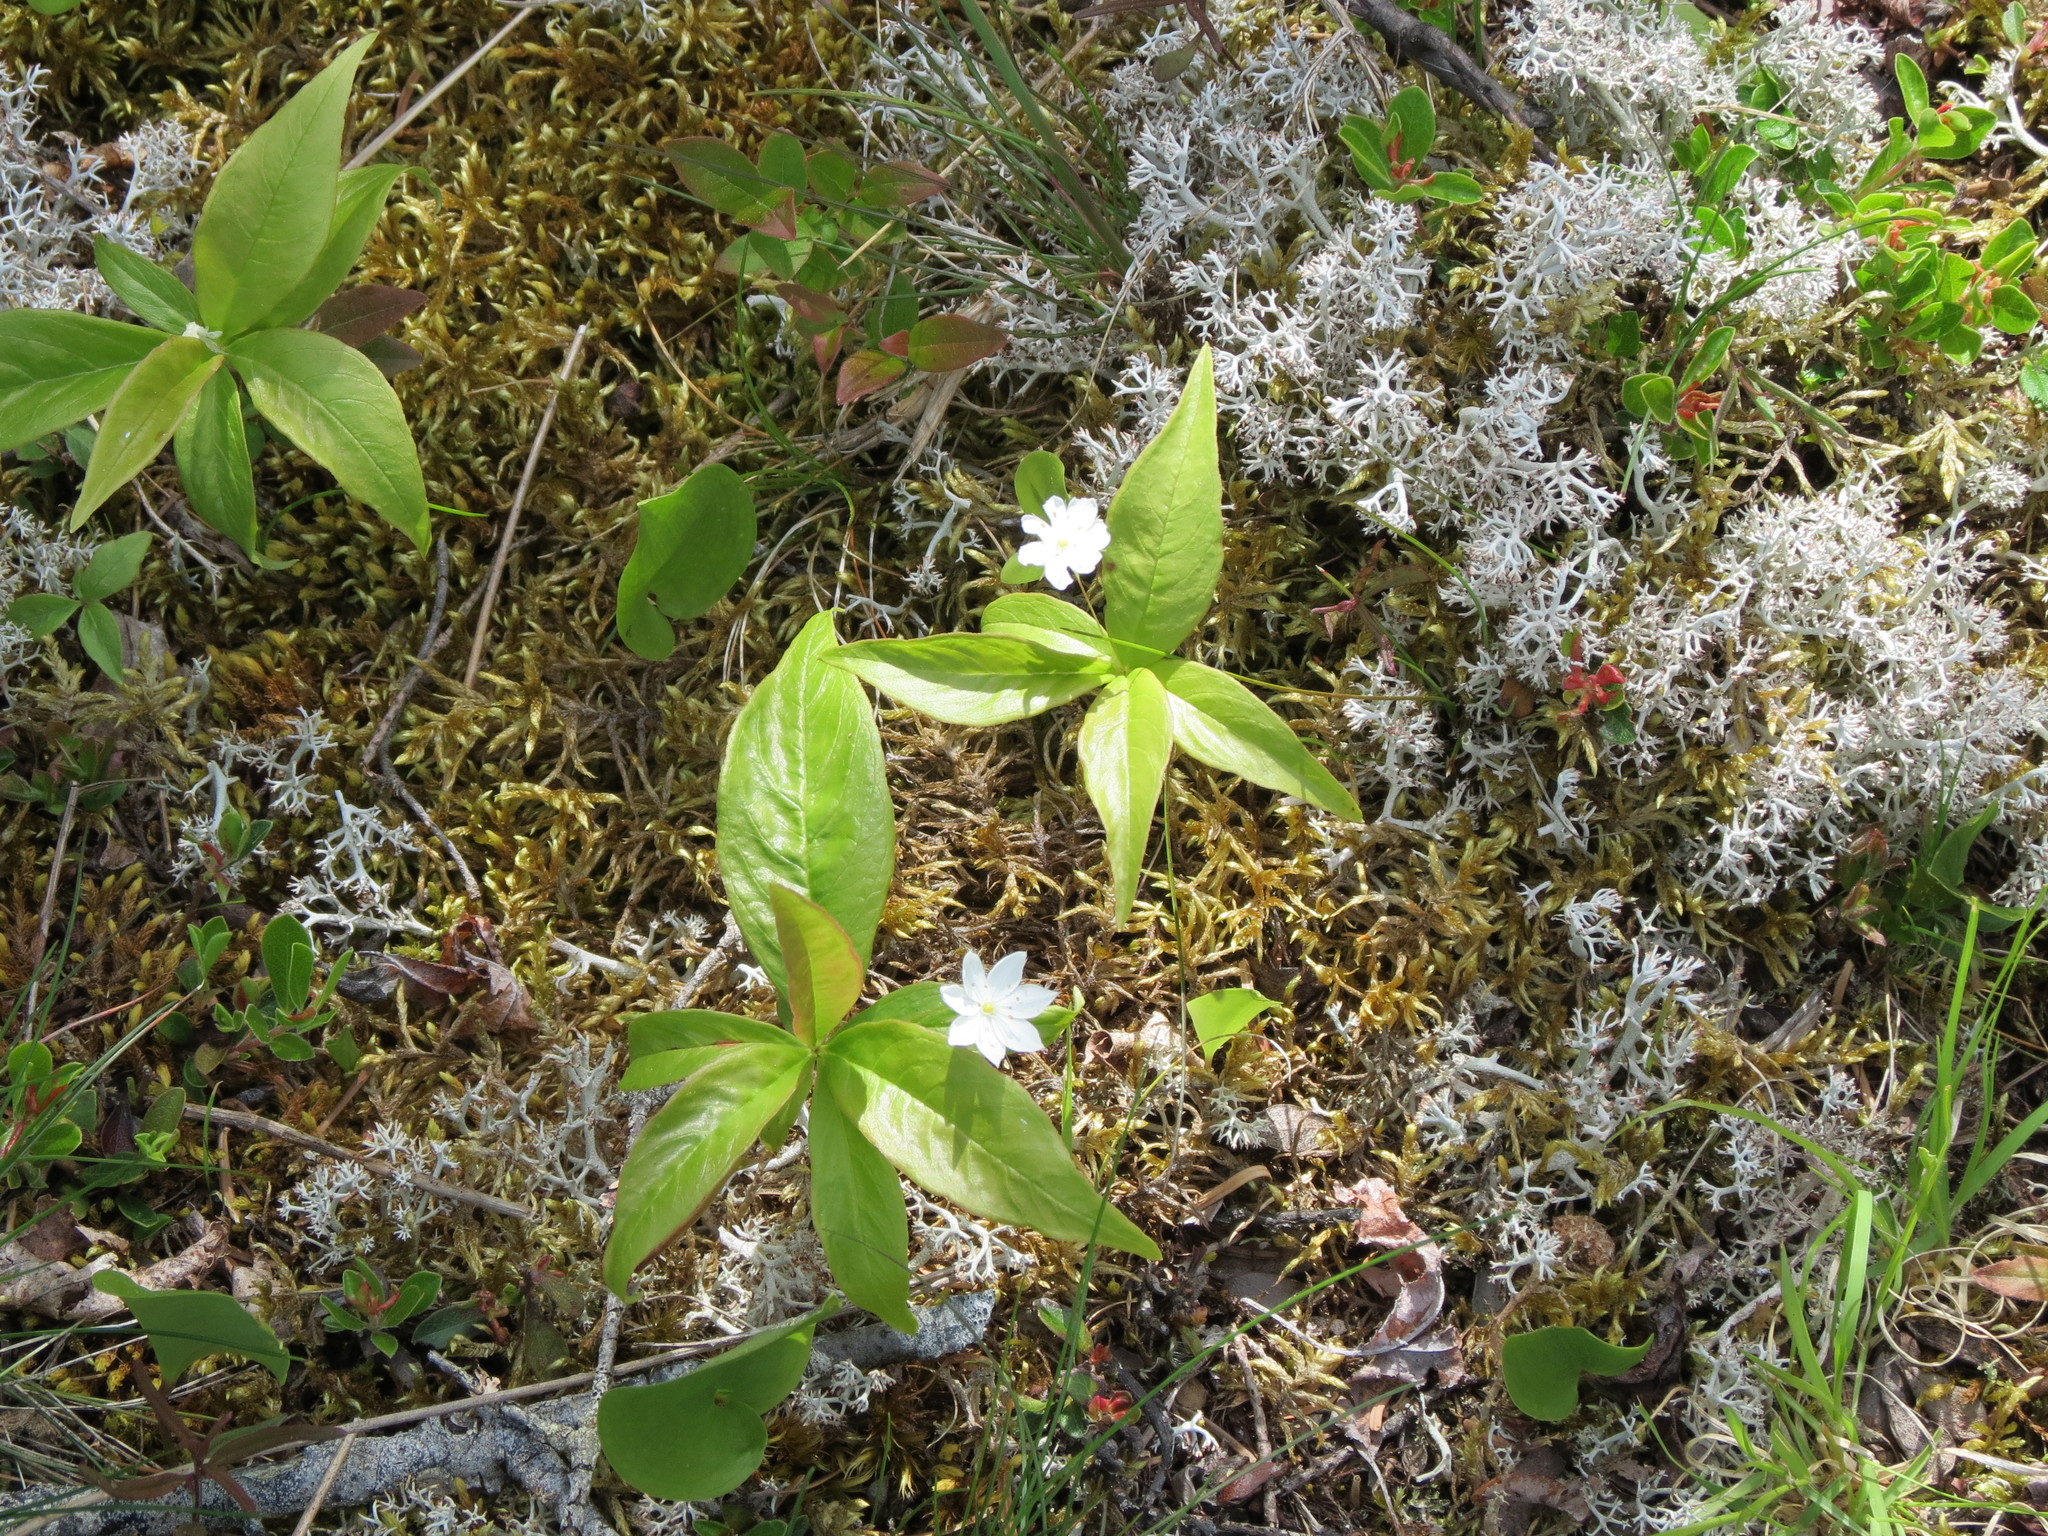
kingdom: Plantae
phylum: Tracheophyta
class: Magnoliopsida
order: Ericales
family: Primulaceae
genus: Lysimachia
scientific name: Lysimachia borealis
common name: American starflower
